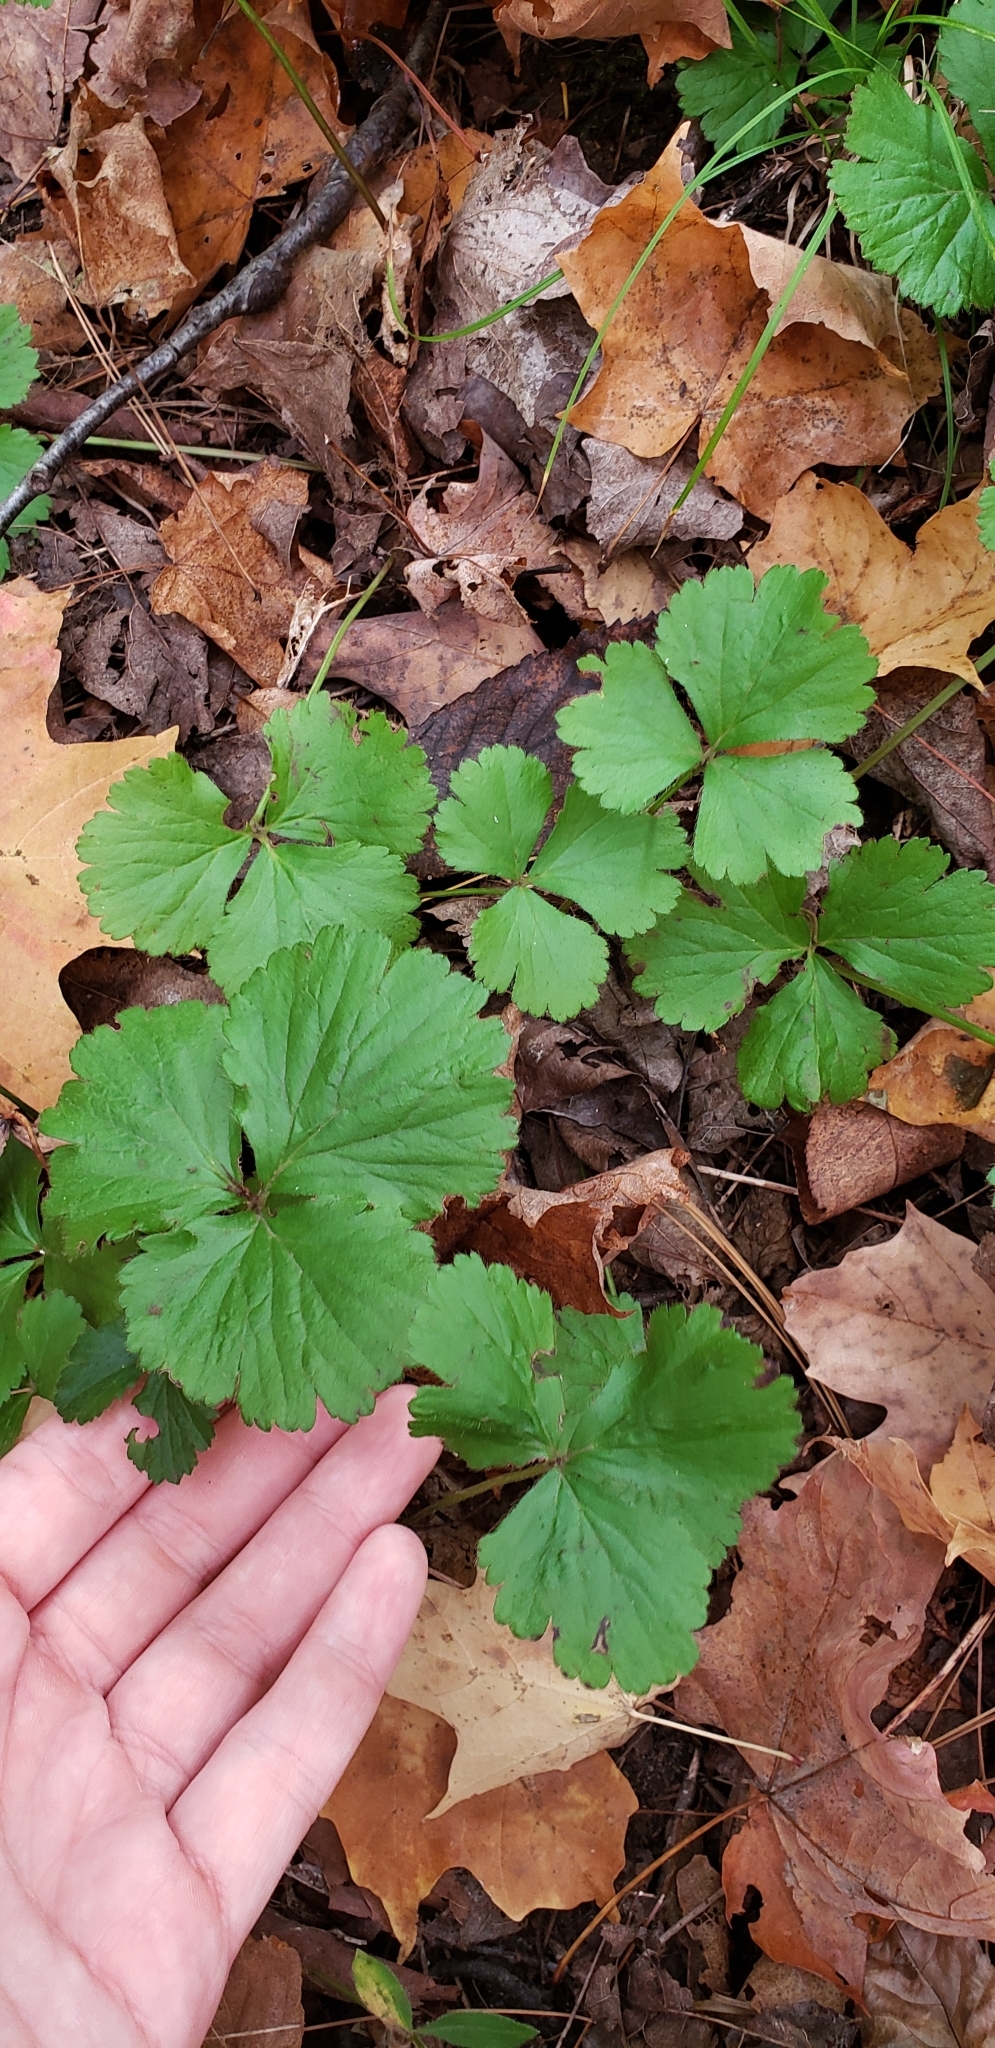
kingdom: Plantae
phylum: Tracheophyta
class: Magnoliopsida
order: Rosales
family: Rosaceae
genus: Geum
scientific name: Geum fragarioides
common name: Appalachian barren strawberry
